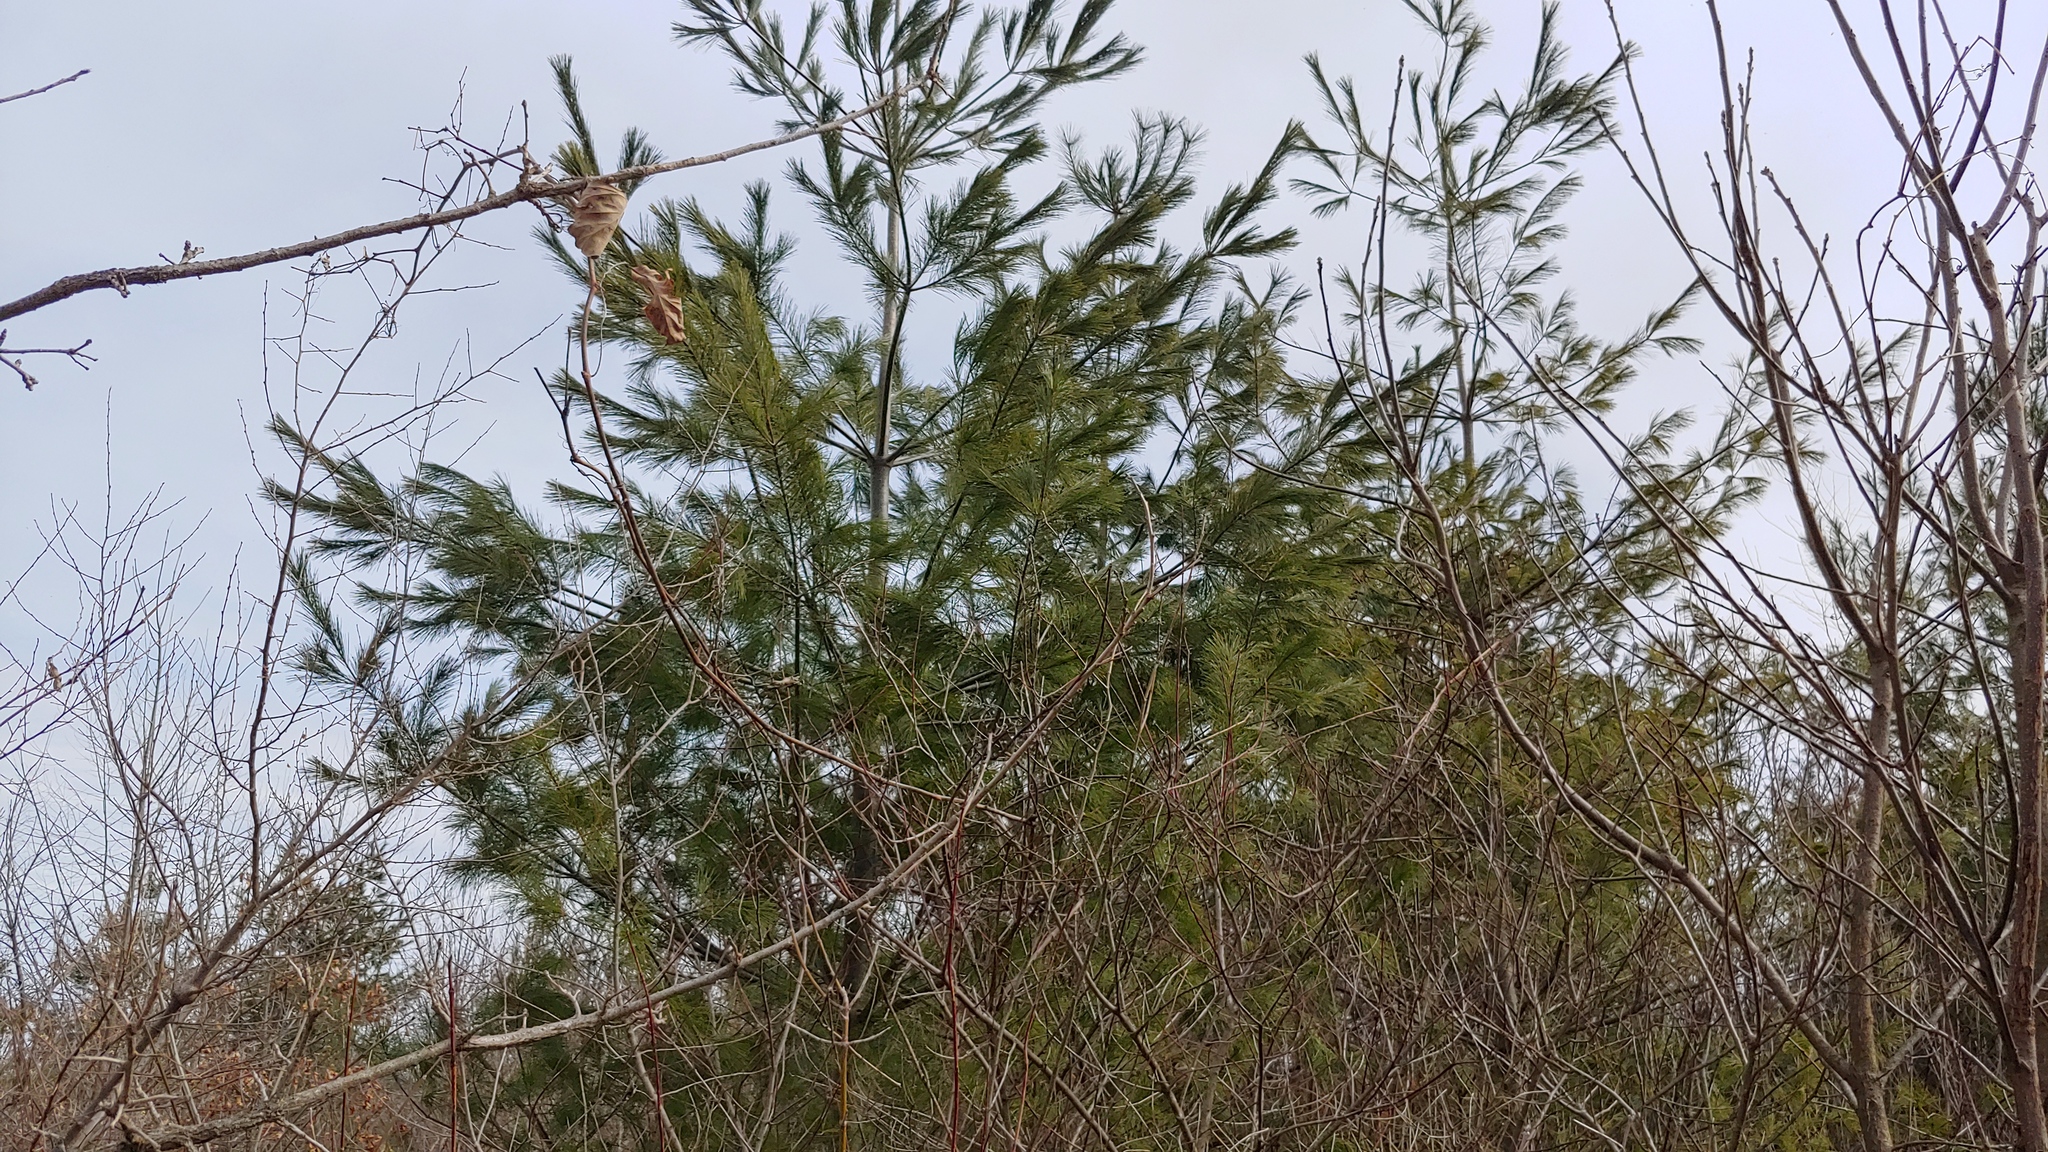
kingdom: Plantae
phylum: Tracheophyta
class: Pinopsida
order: Pinales
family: Pinaceae
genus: Pinus
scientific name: Pinus strobus
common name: Weymouth pine
